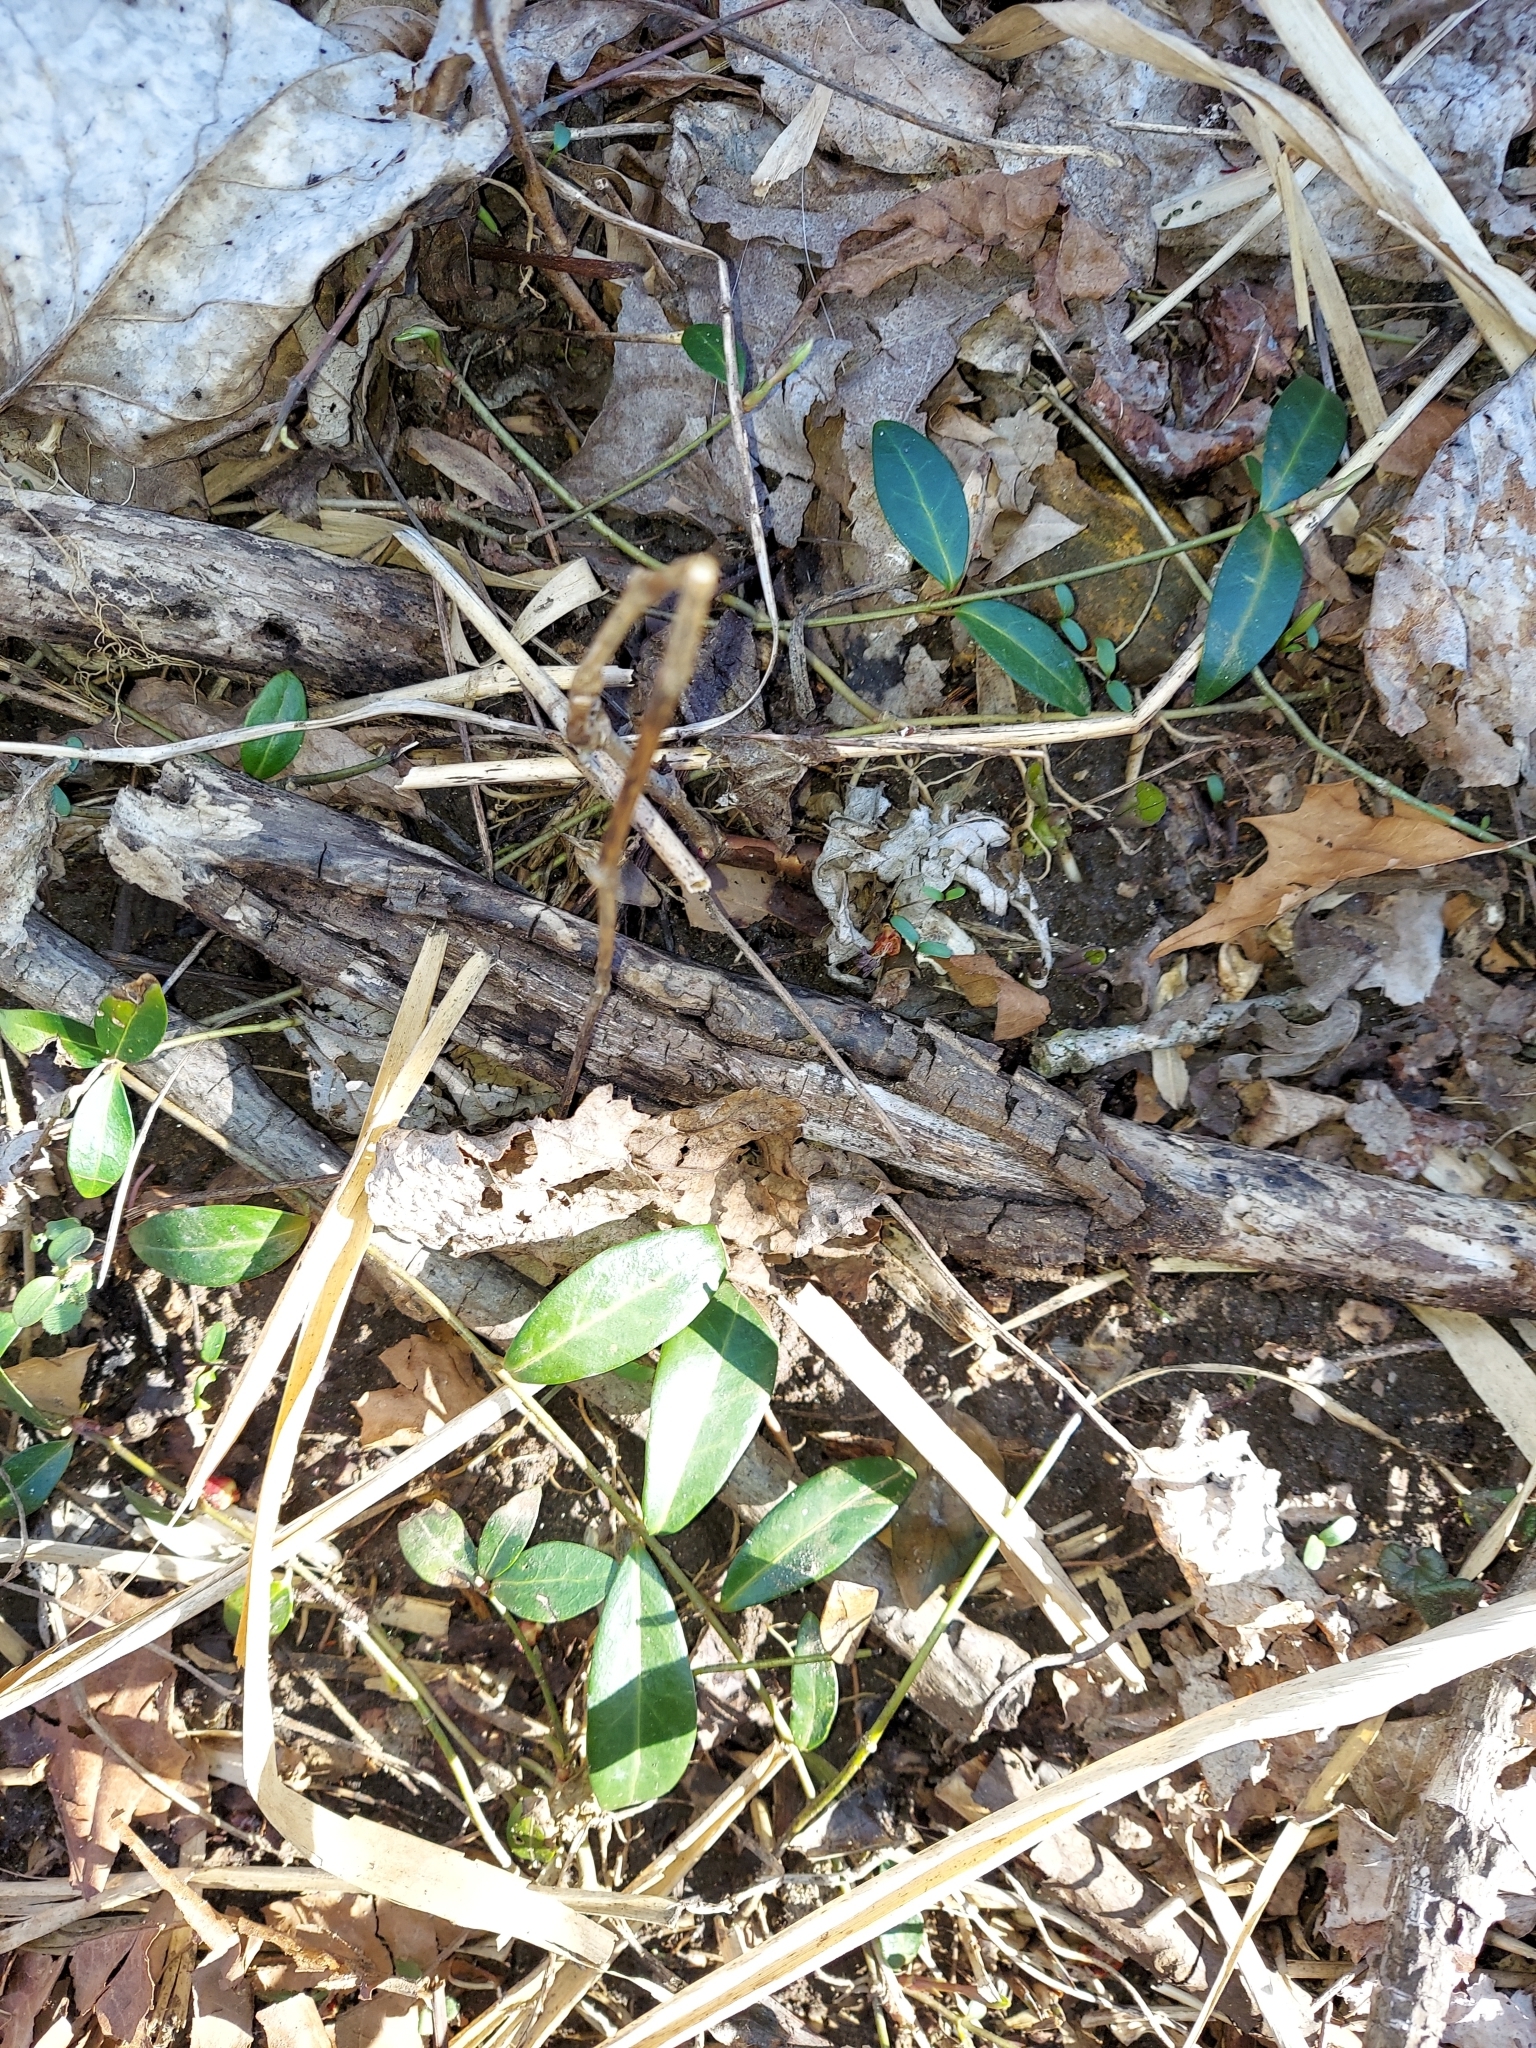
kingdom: Plantae
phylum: Tracheophyta
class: Magnoliopsida
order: Gentianales
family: Apocynaceae
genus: Vinca
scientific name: Vinca minor
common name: Lesser periwinkle
